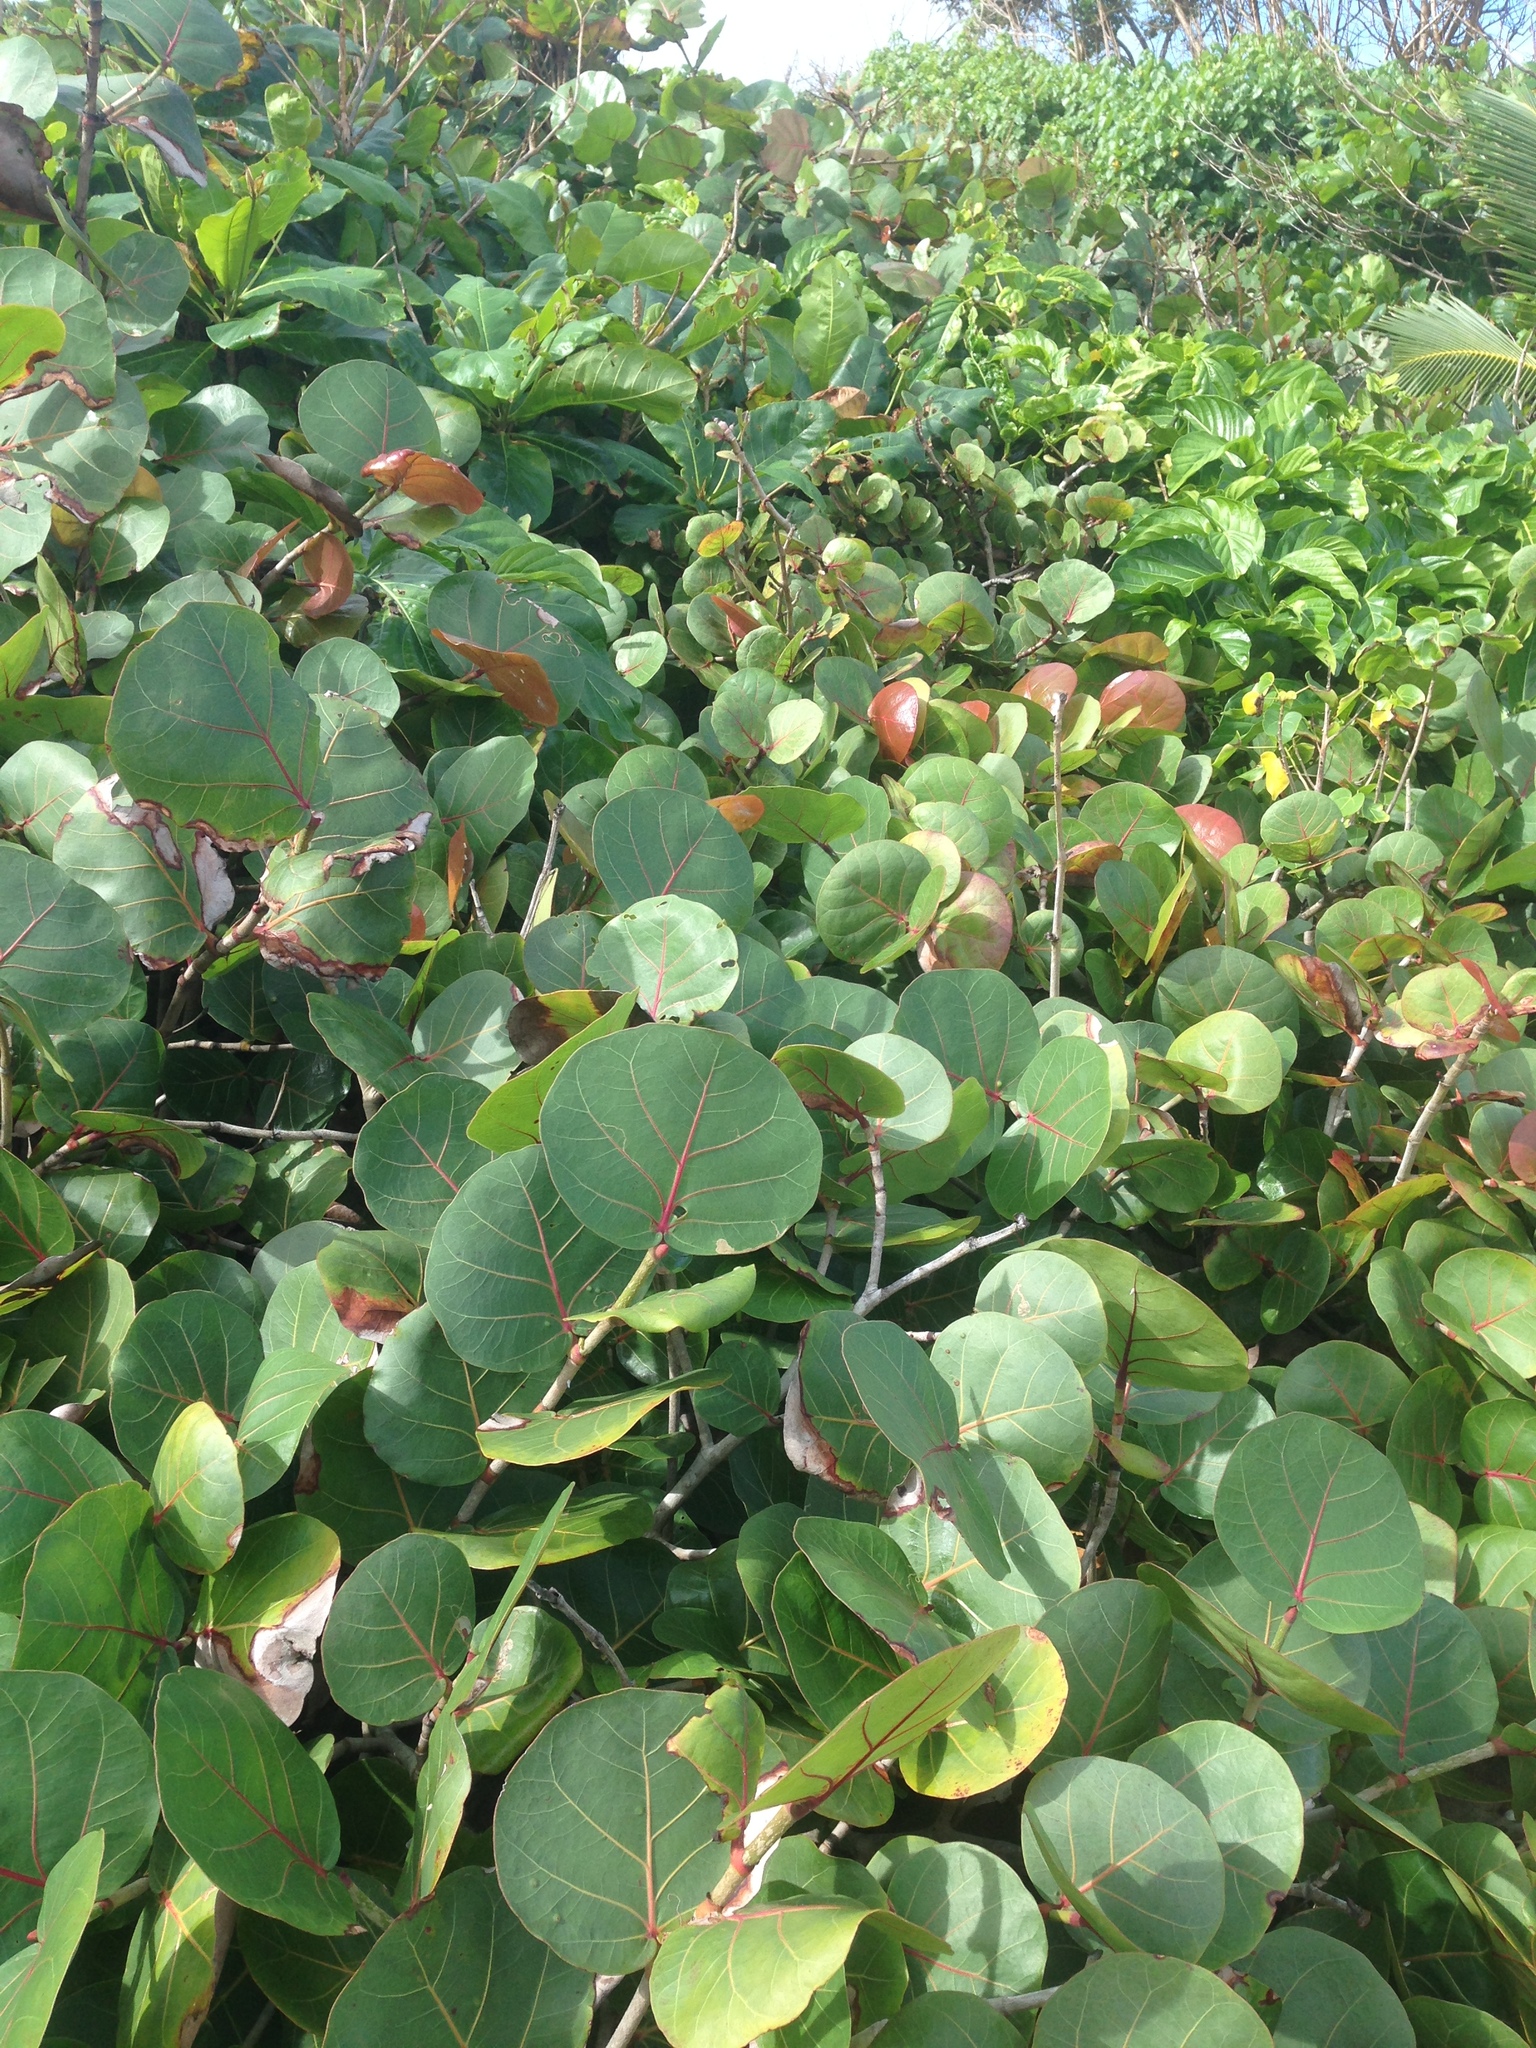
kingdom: Plantae
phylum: Tracheophyta
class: Magnoliopsida
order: Caryophyllales
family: Polygonaceae
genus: Coccoloba
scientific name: Coccoloba uvifera
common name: Seagrape
